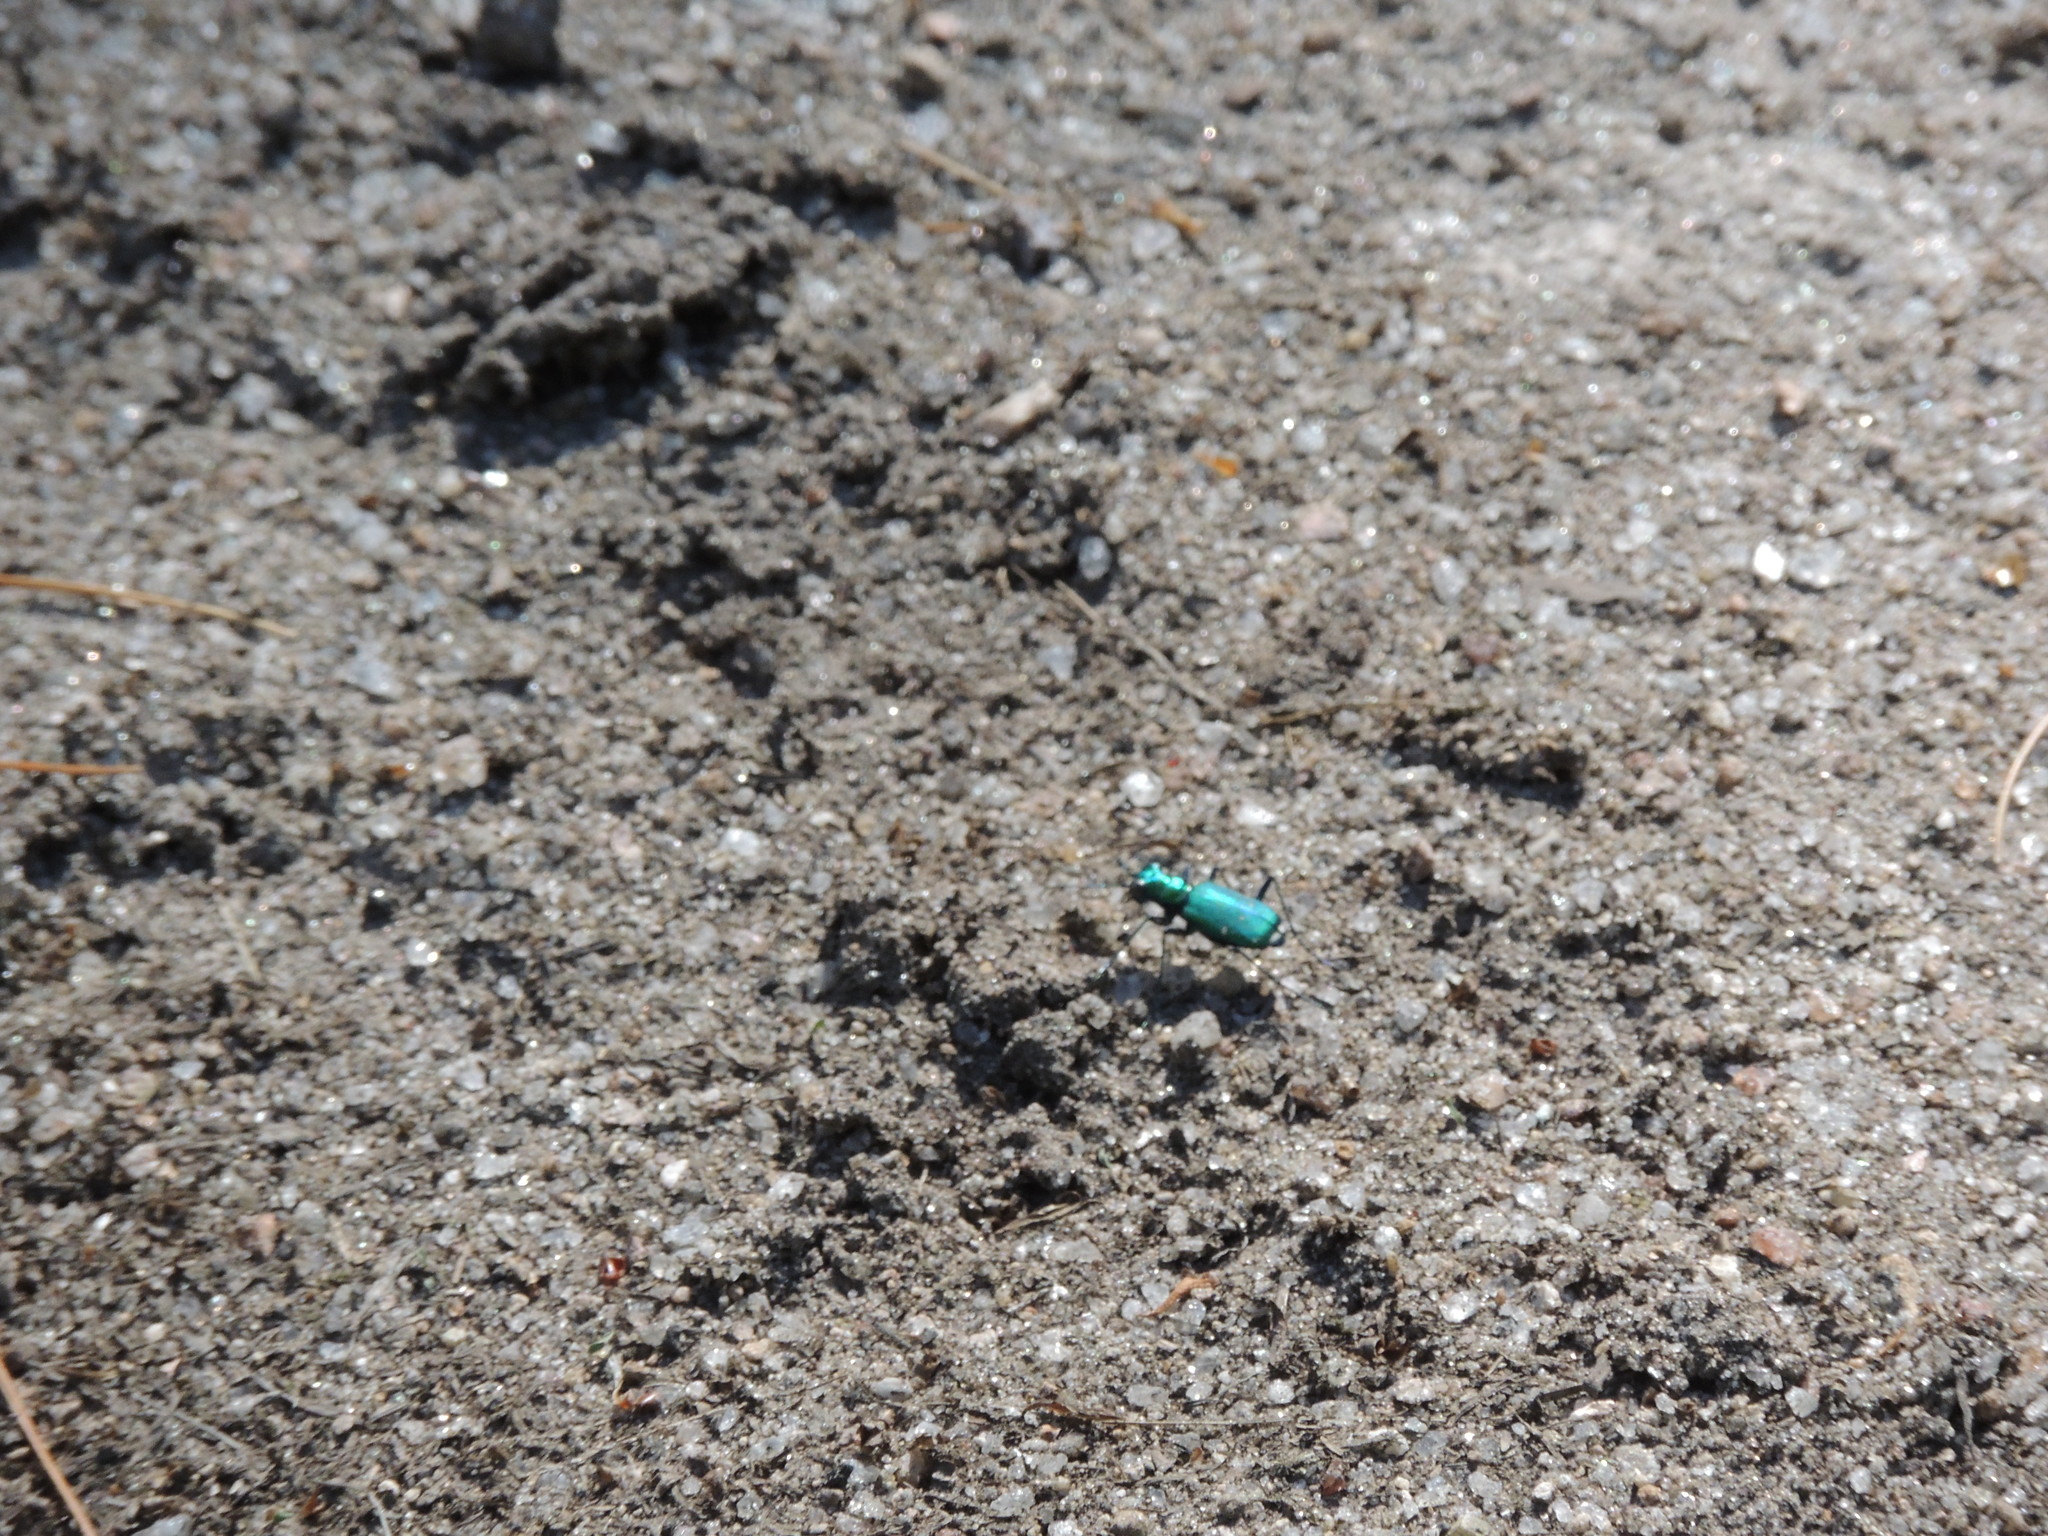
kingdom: Animalia
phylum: Arthropoda
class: Insecta
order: Coleoptera
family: Carabidae
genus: Cicindela
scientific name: Cicindela sexguttata
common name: Six-spotted tiger beetle
